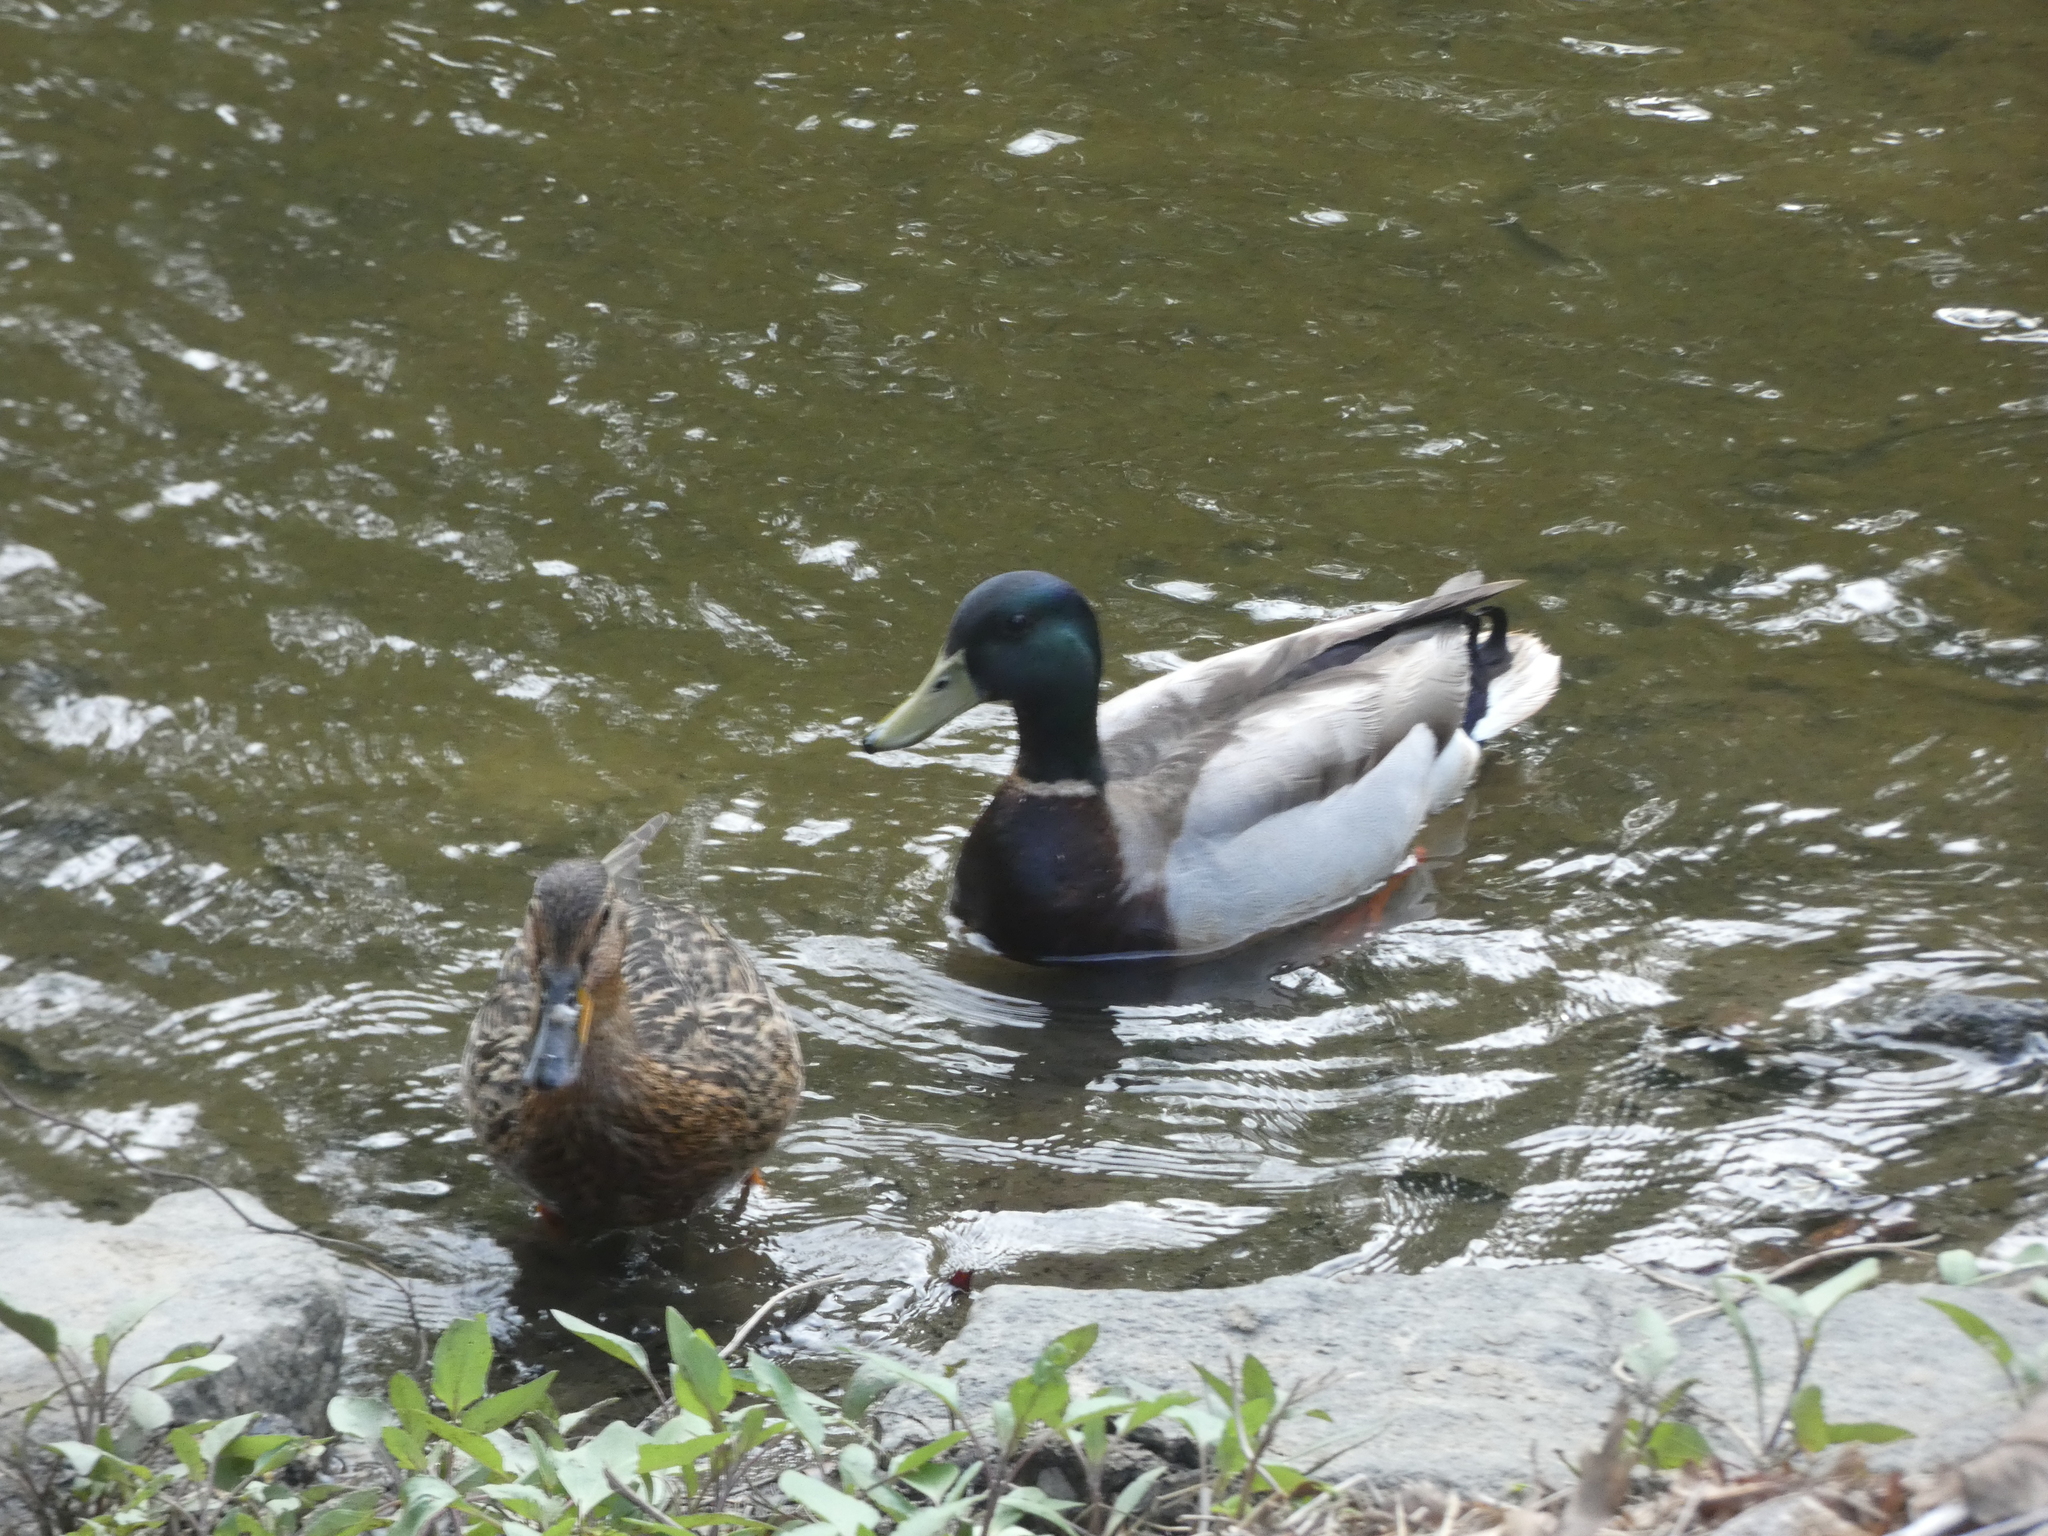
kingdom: Animalia
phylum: Chordata
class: Aves
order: Anseriformes
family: Anatidae
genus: Anas
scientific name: Anas platyrhynchos
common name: Mallard
